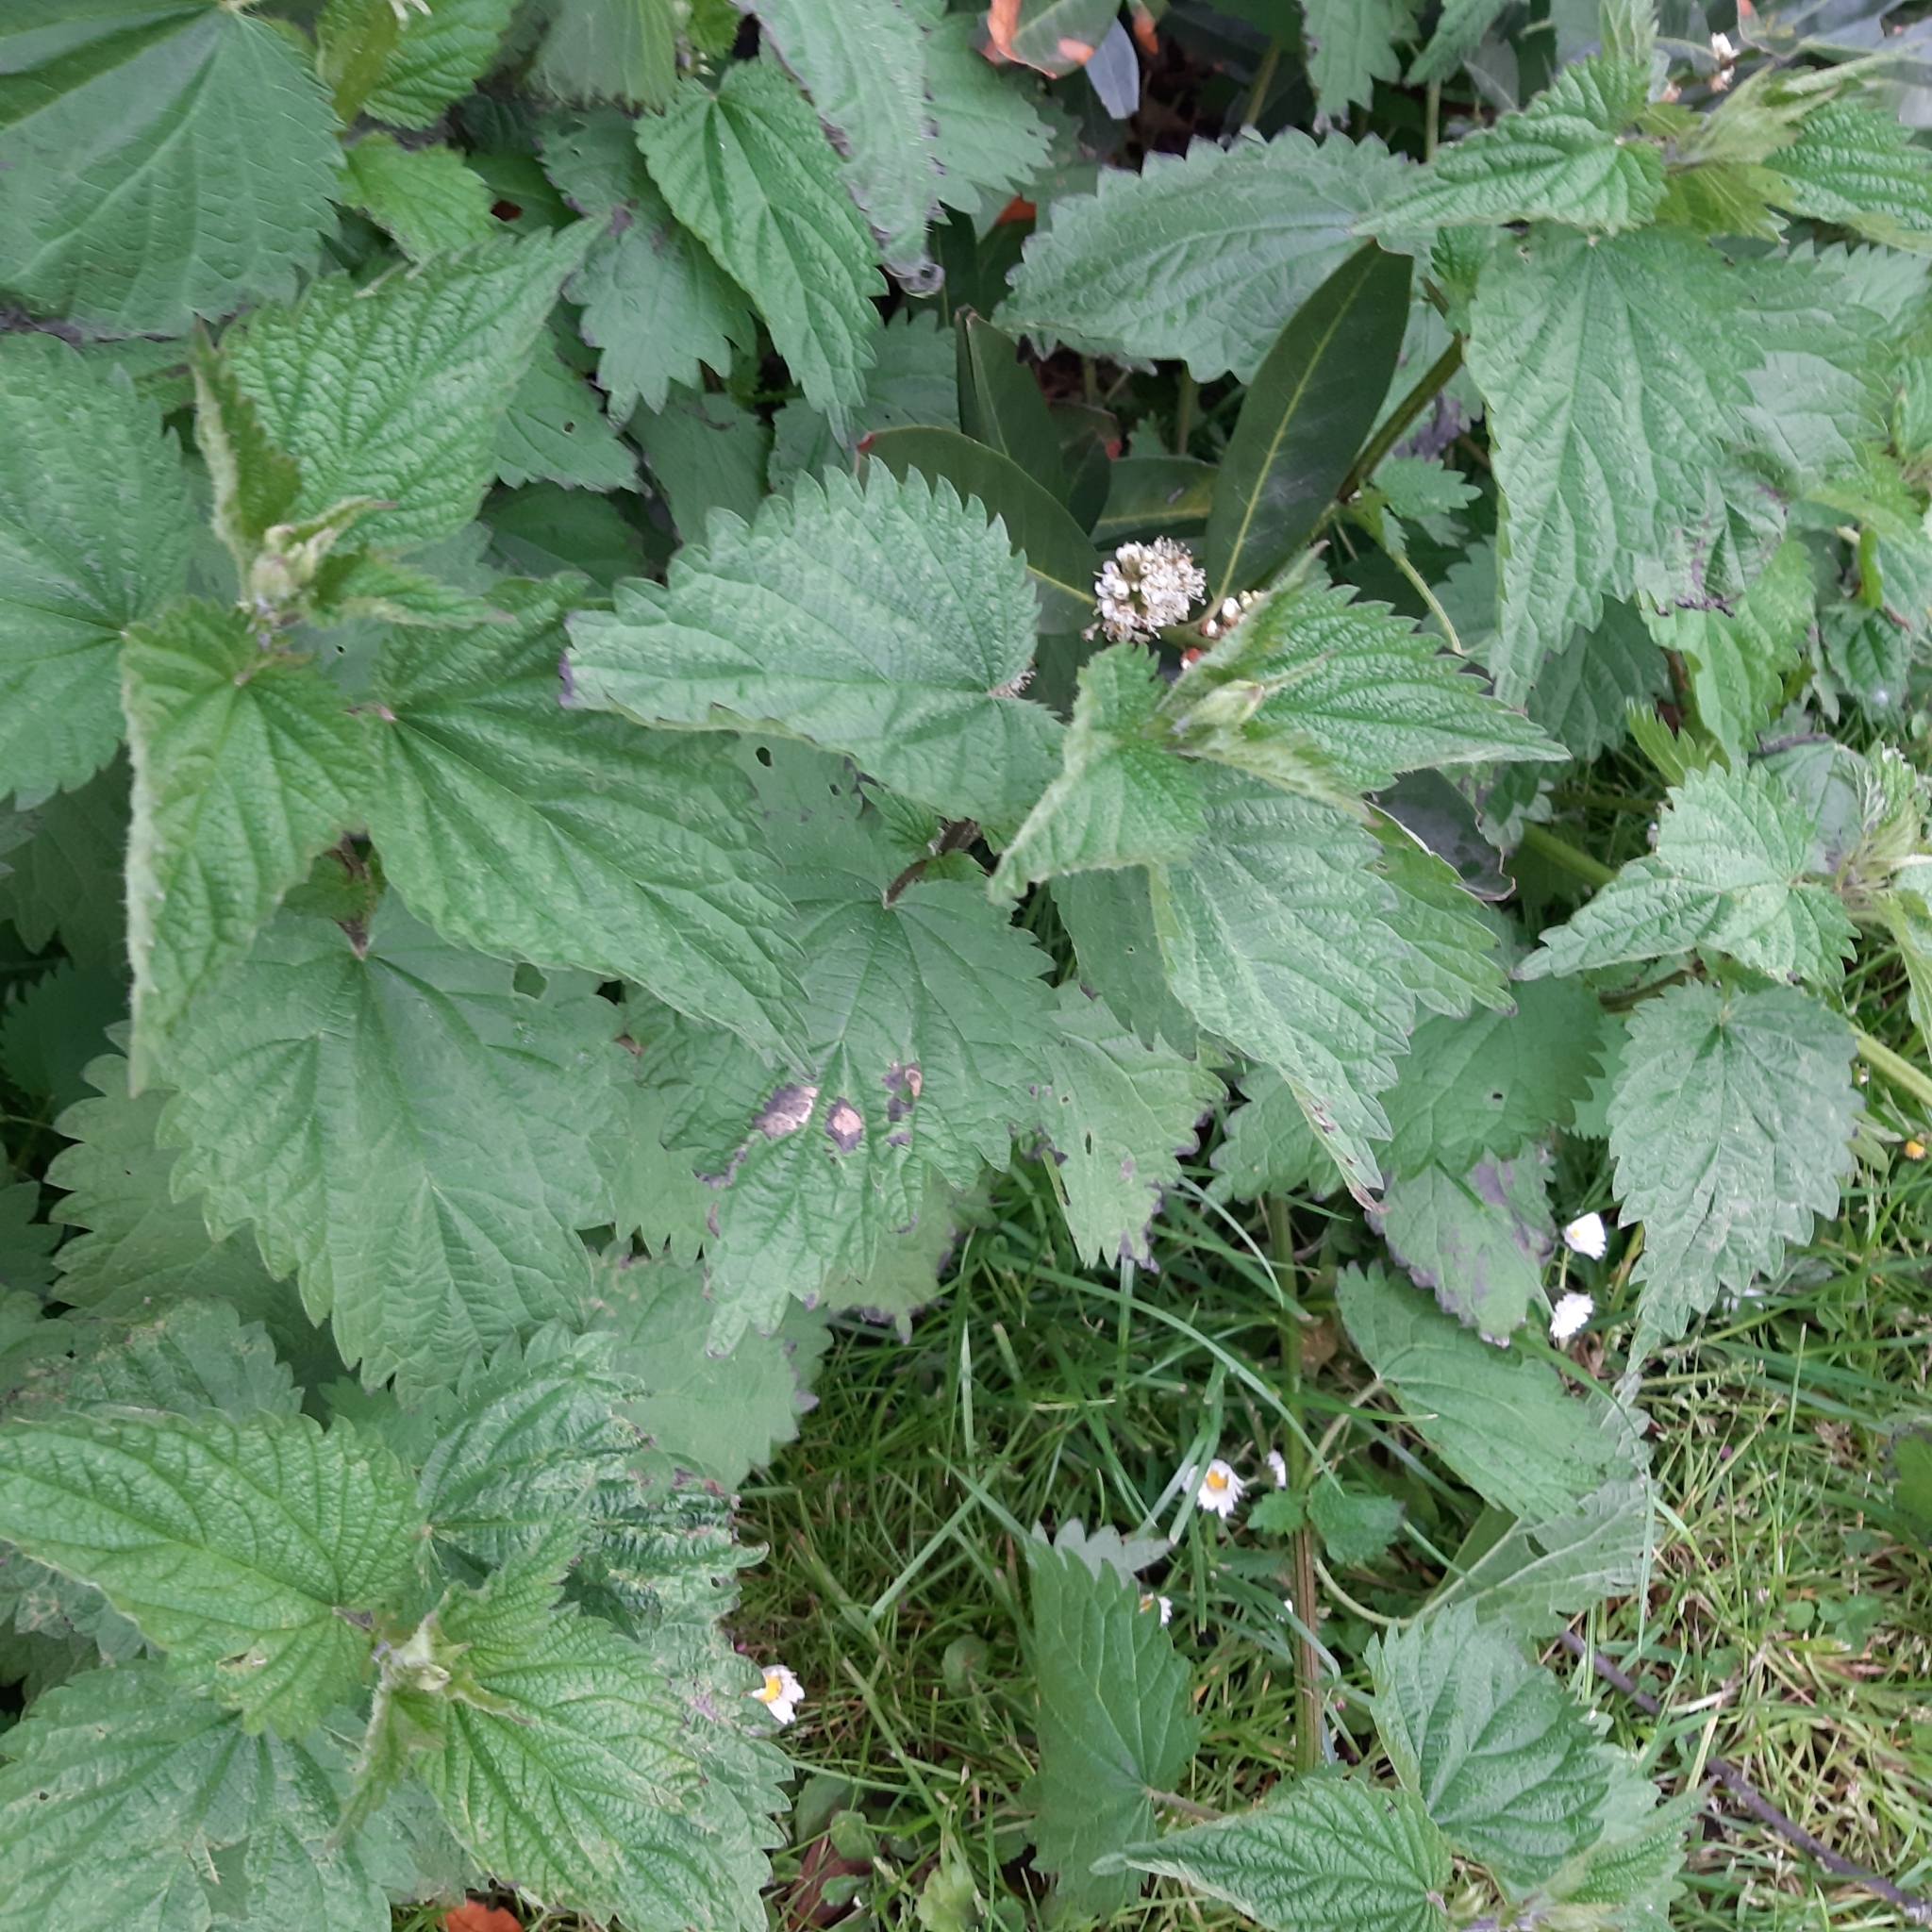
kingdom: Plantae
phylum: Tracheophyta
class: Magnoliopsida
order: Rosales
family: Urticaceae
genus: Urtica
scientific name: Urtica dioica
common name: Common nettle
